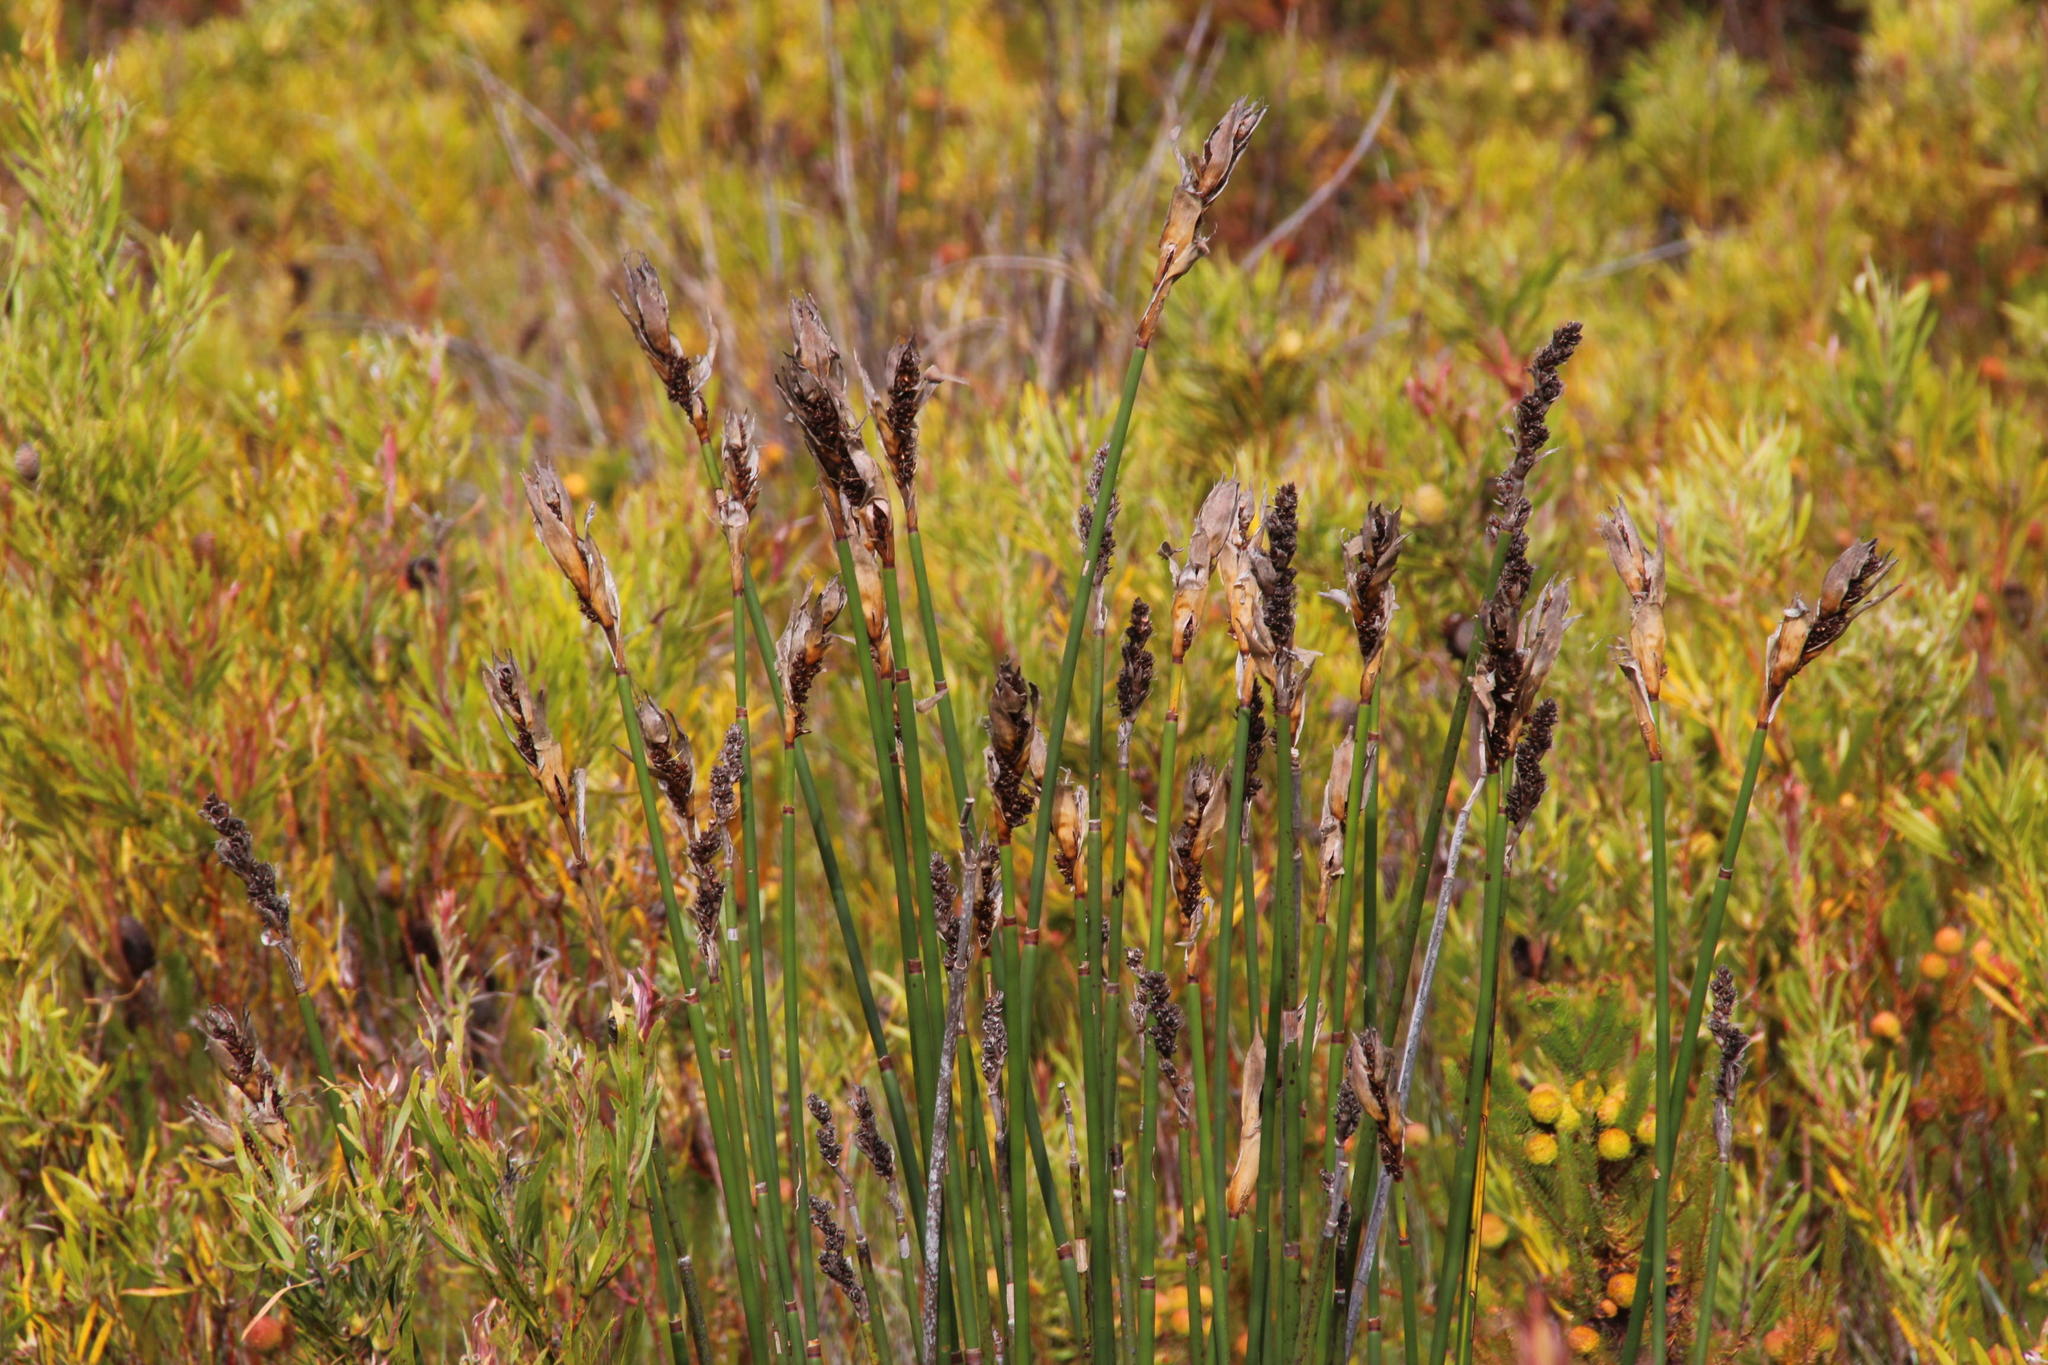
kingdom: Plantae
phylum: Tracheophyta
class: Liliopsida
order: Poales
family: Restionaceae
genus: Elegia
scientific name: Elegia mucronata
